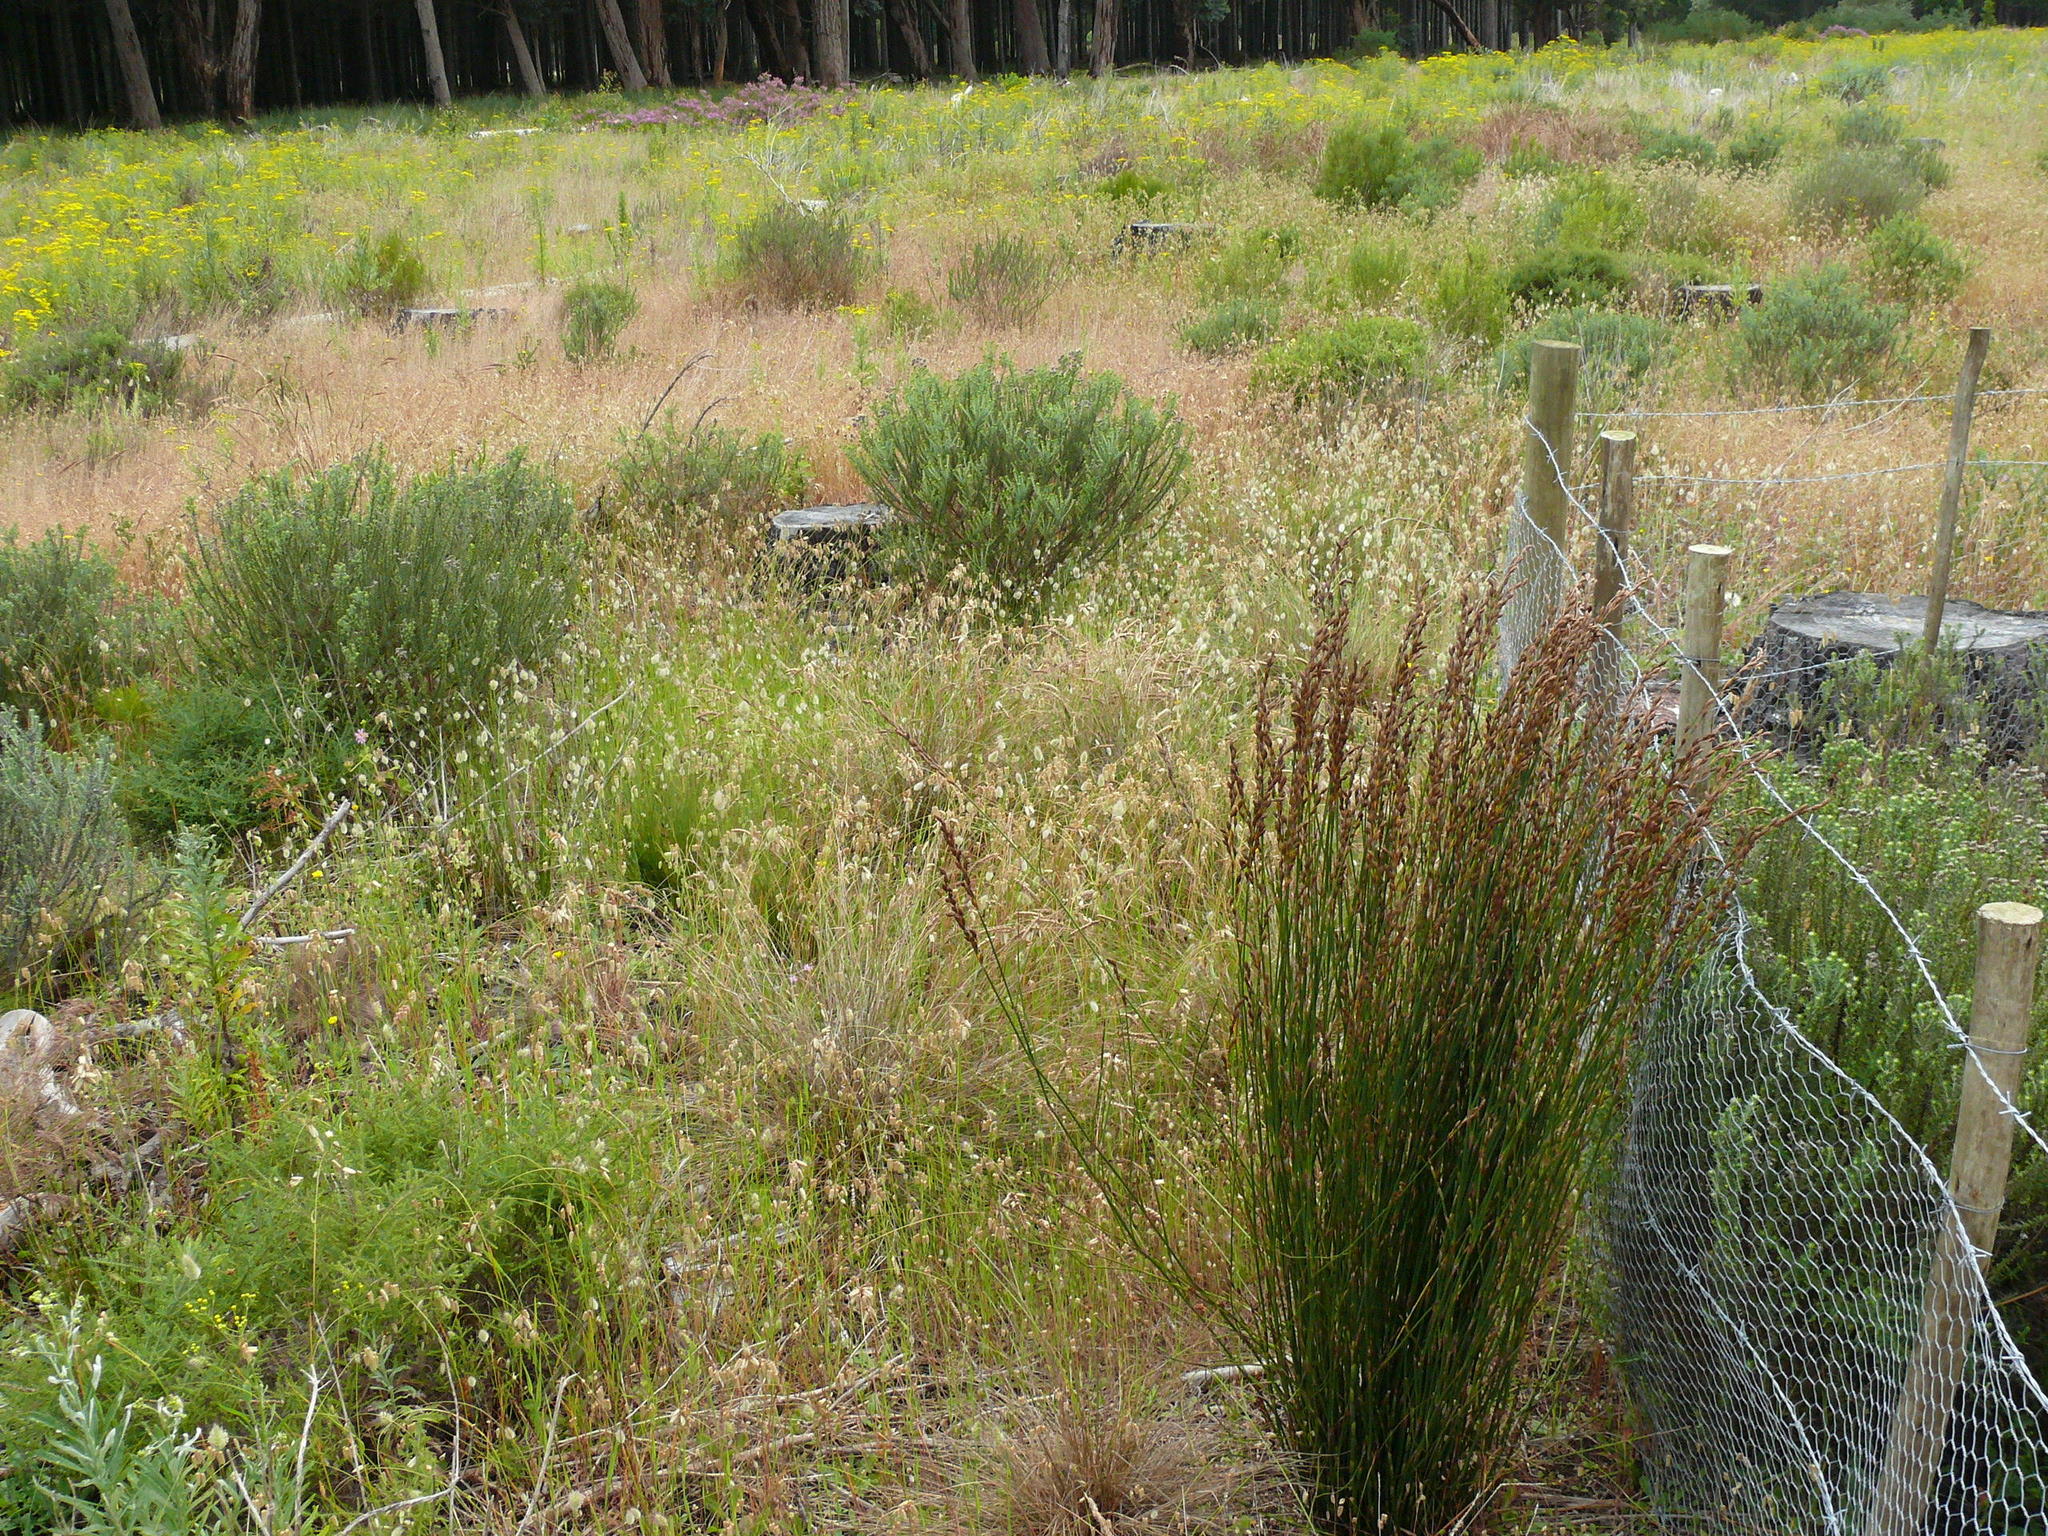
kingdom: Plantae
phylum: Tracheophyta
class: Liliopsida
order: Poales
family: Restionaceae
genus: Restio
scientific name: Restio bifurcus
